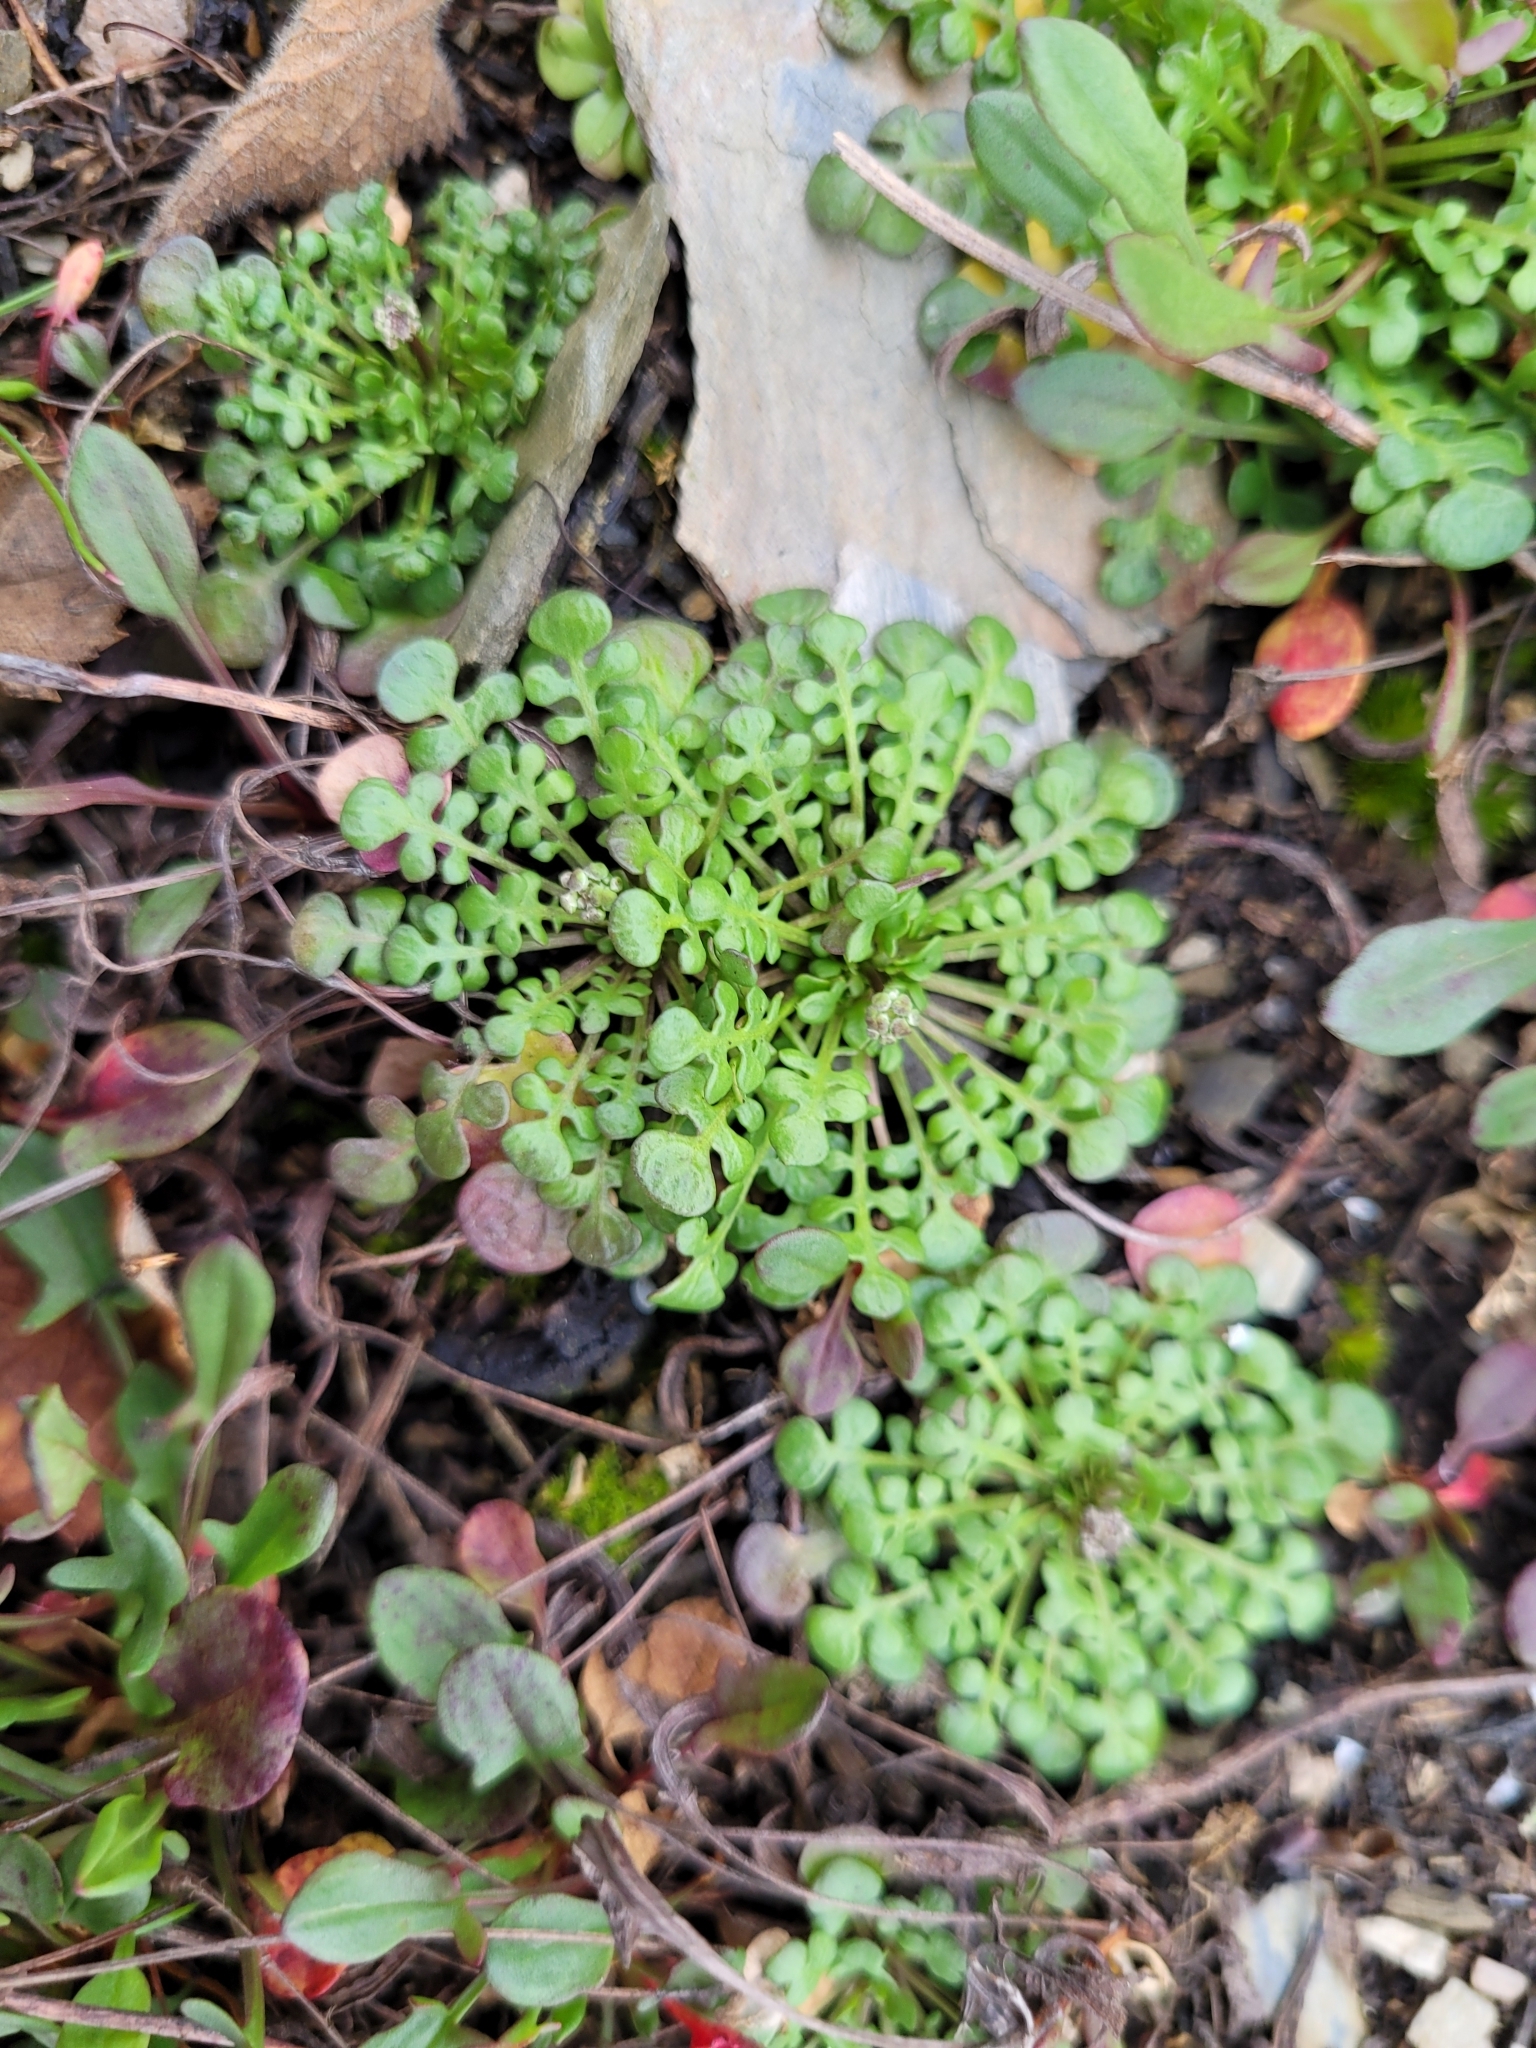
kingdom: Plantae
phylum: Tracheophyta
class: Magnoliopsida
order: Brassicales
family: Brassicaceae
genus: Teesdalia
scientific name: Teesdalia nudicaulis
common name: Shepherd's cress
